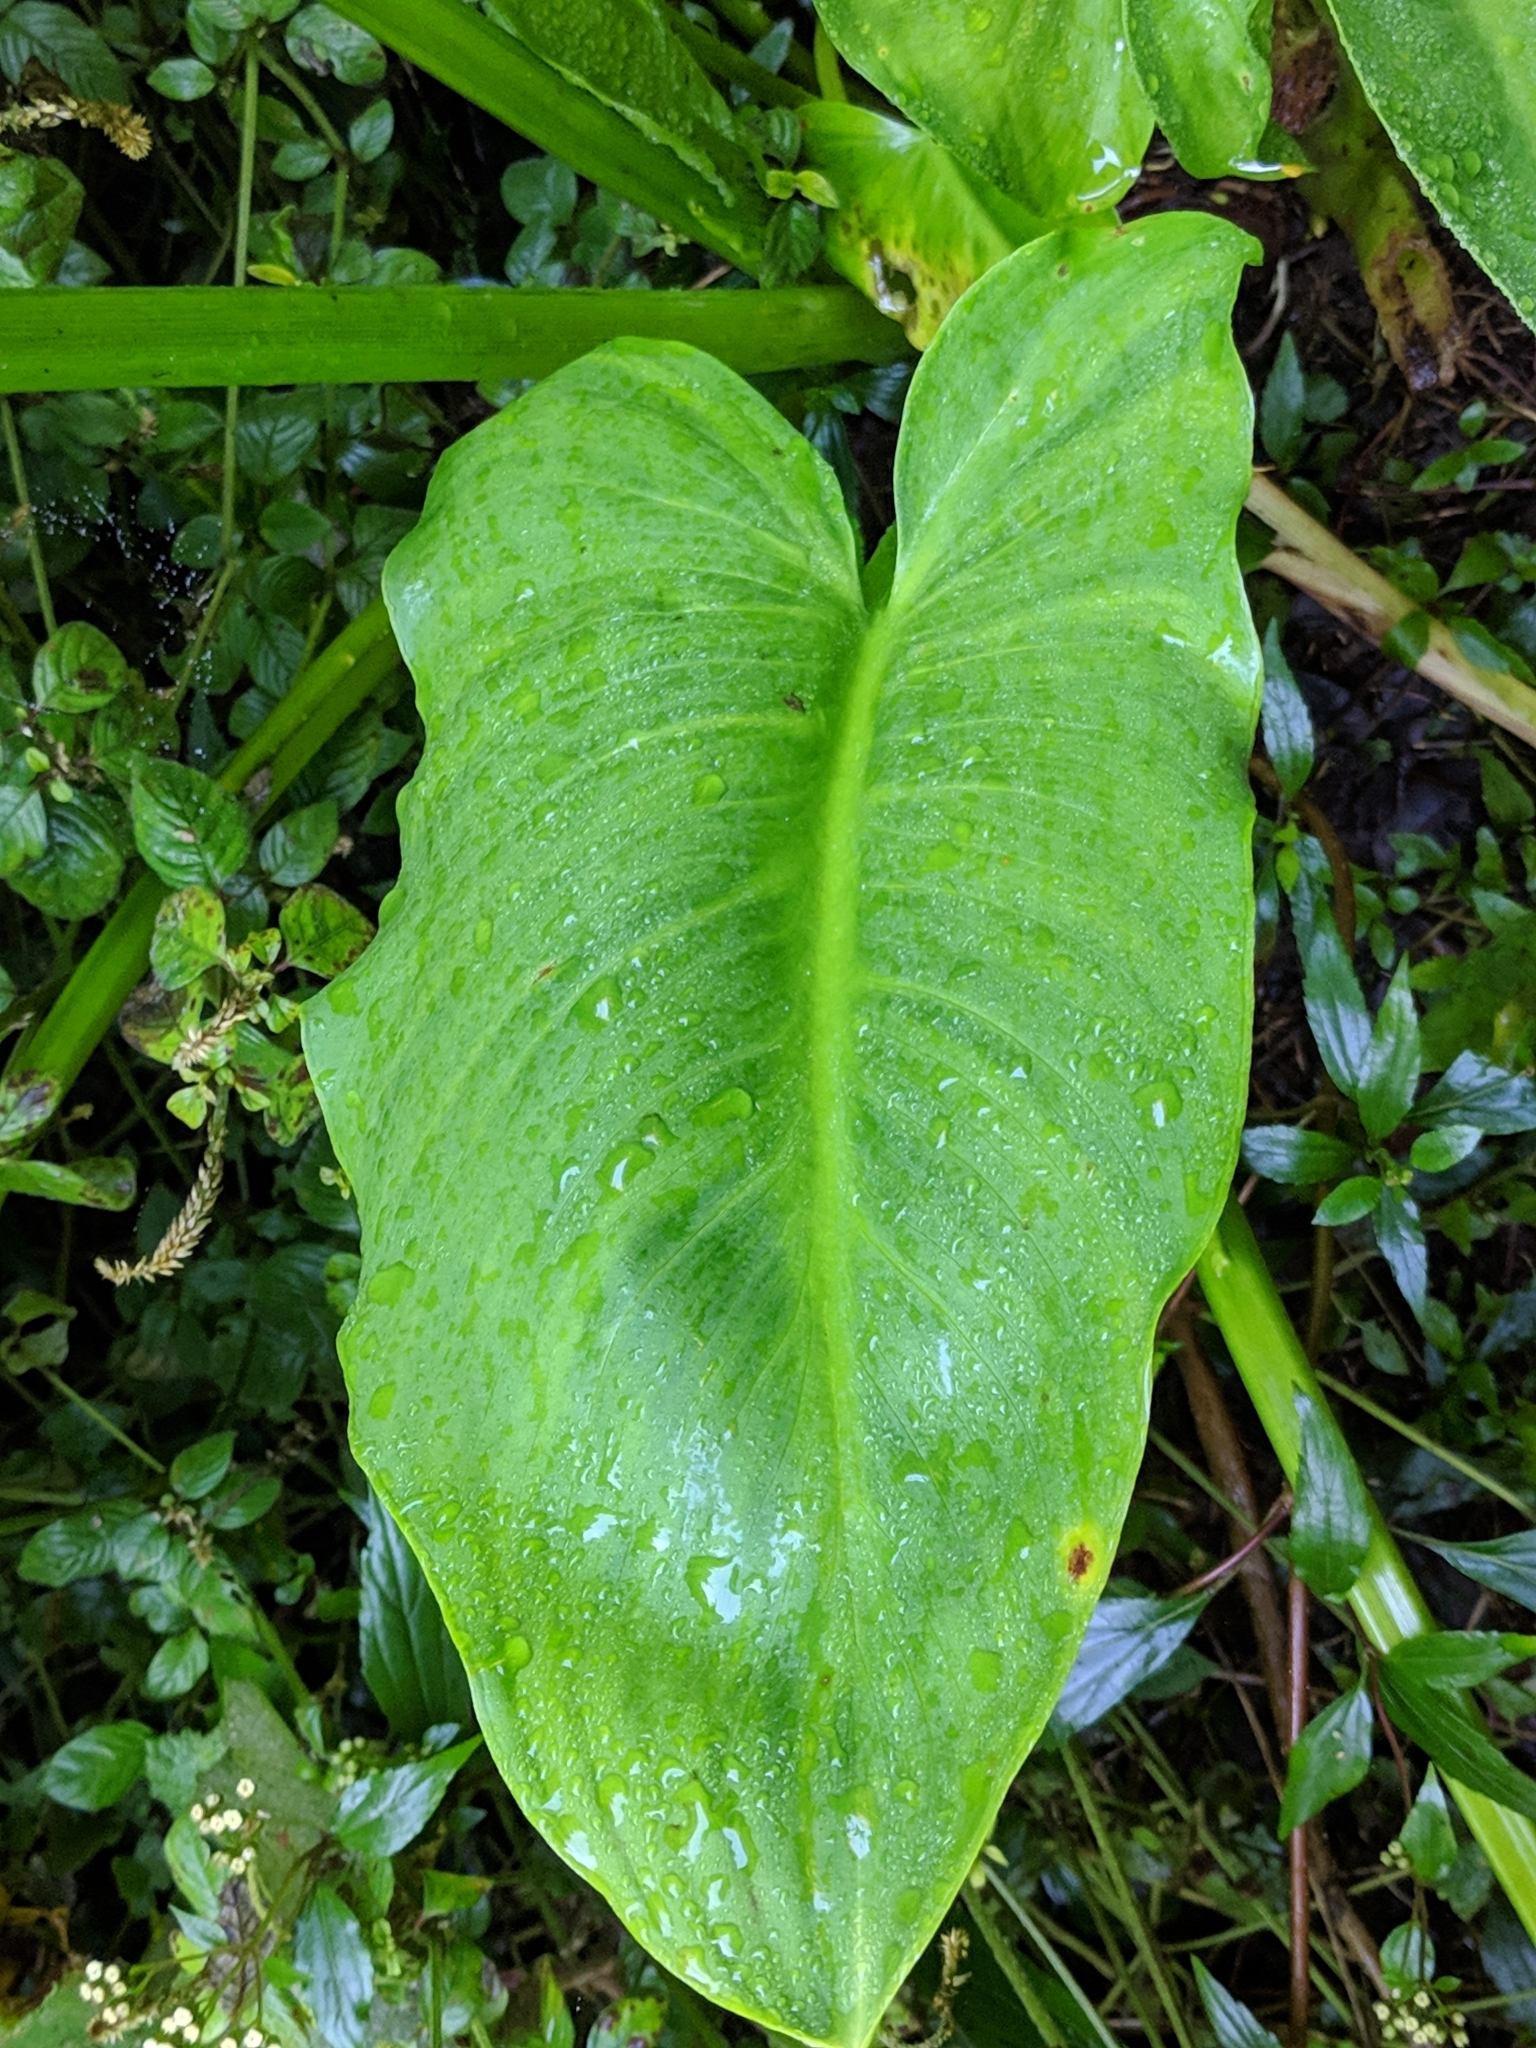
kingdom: Plantae
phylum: Tracheophyta
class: Liliopsida
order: Alismatales
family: Araceae
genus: Zantedeschia
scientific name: Zantedeschia aethiopica
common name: Altar-lily
